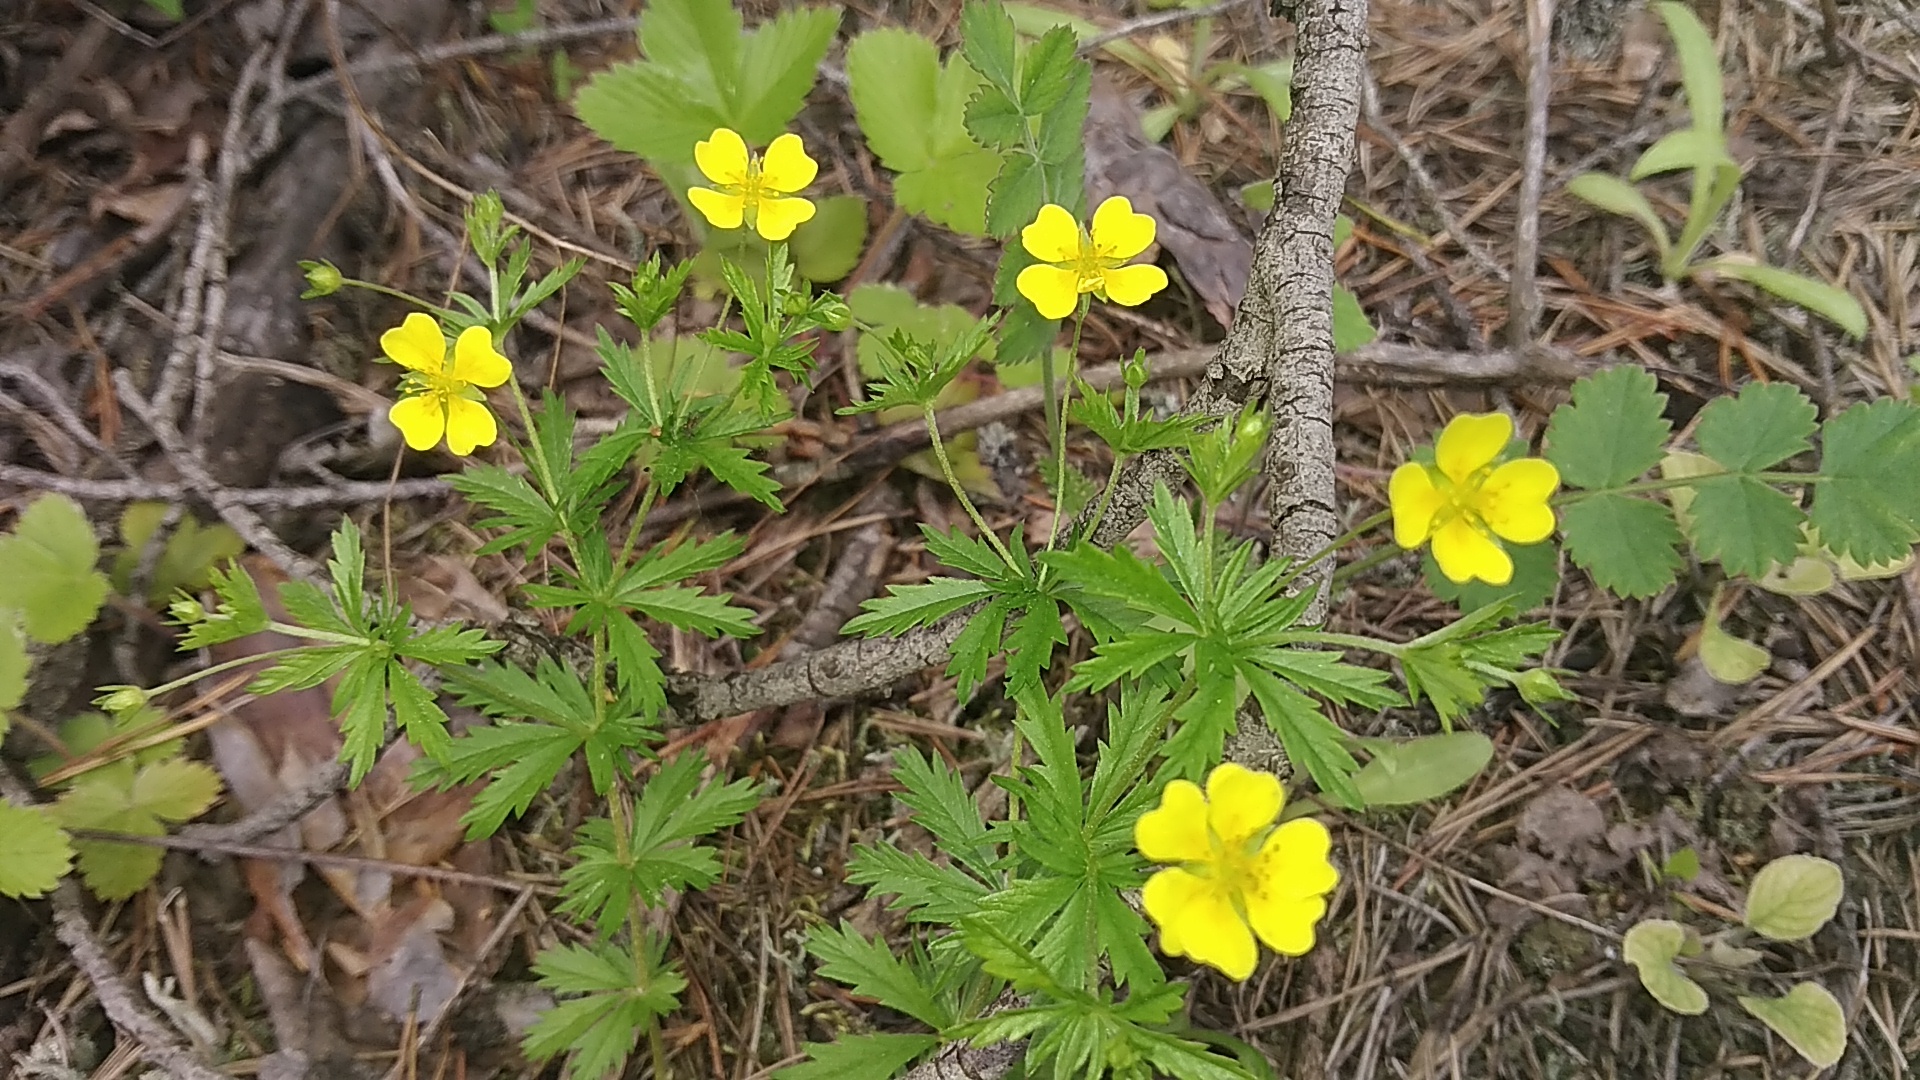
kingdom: Plantae
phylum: Tracheophyta
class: Magnoliopsida
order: Rosales
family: Rosaceae
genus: Potentilla
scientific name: Potentilla erecta
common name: Tormentil
